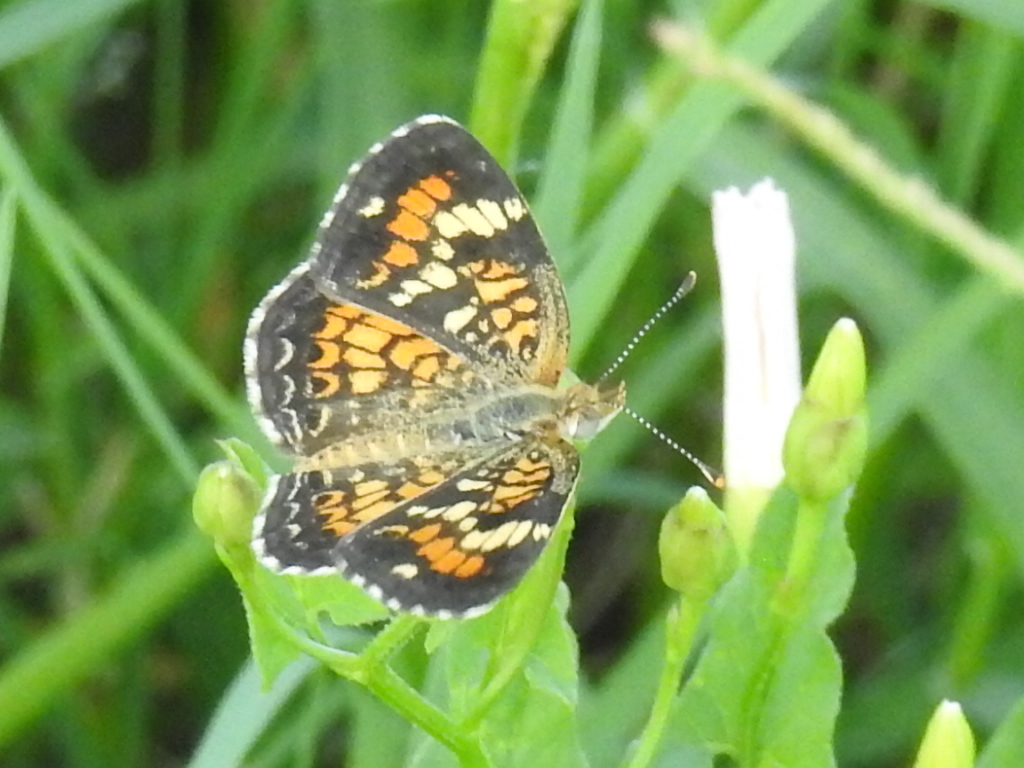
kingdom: Animalia
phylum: Arthropoda
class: Insecta
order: Lepidoptera
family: Nymphalidae
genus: Phyciodes
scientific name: Phyciodes phaon
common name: Phaon crescent
